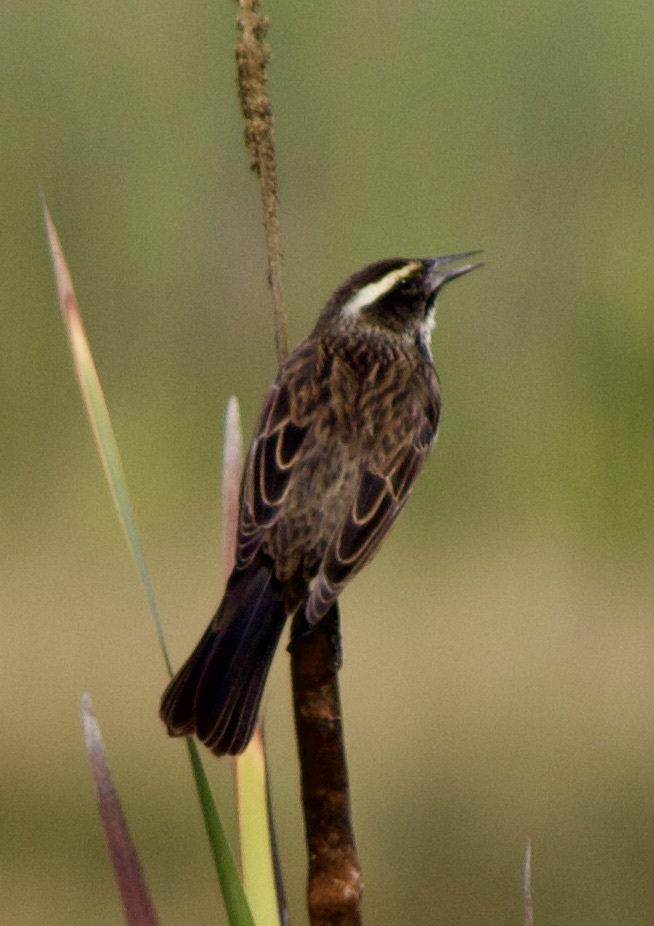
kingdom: Animalia
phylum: Chordata
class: Aves
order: Passeriformes
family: Icteridae
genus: Agelasticus
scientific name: Agelasticus thilius
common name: Yellow-winged blackbird
